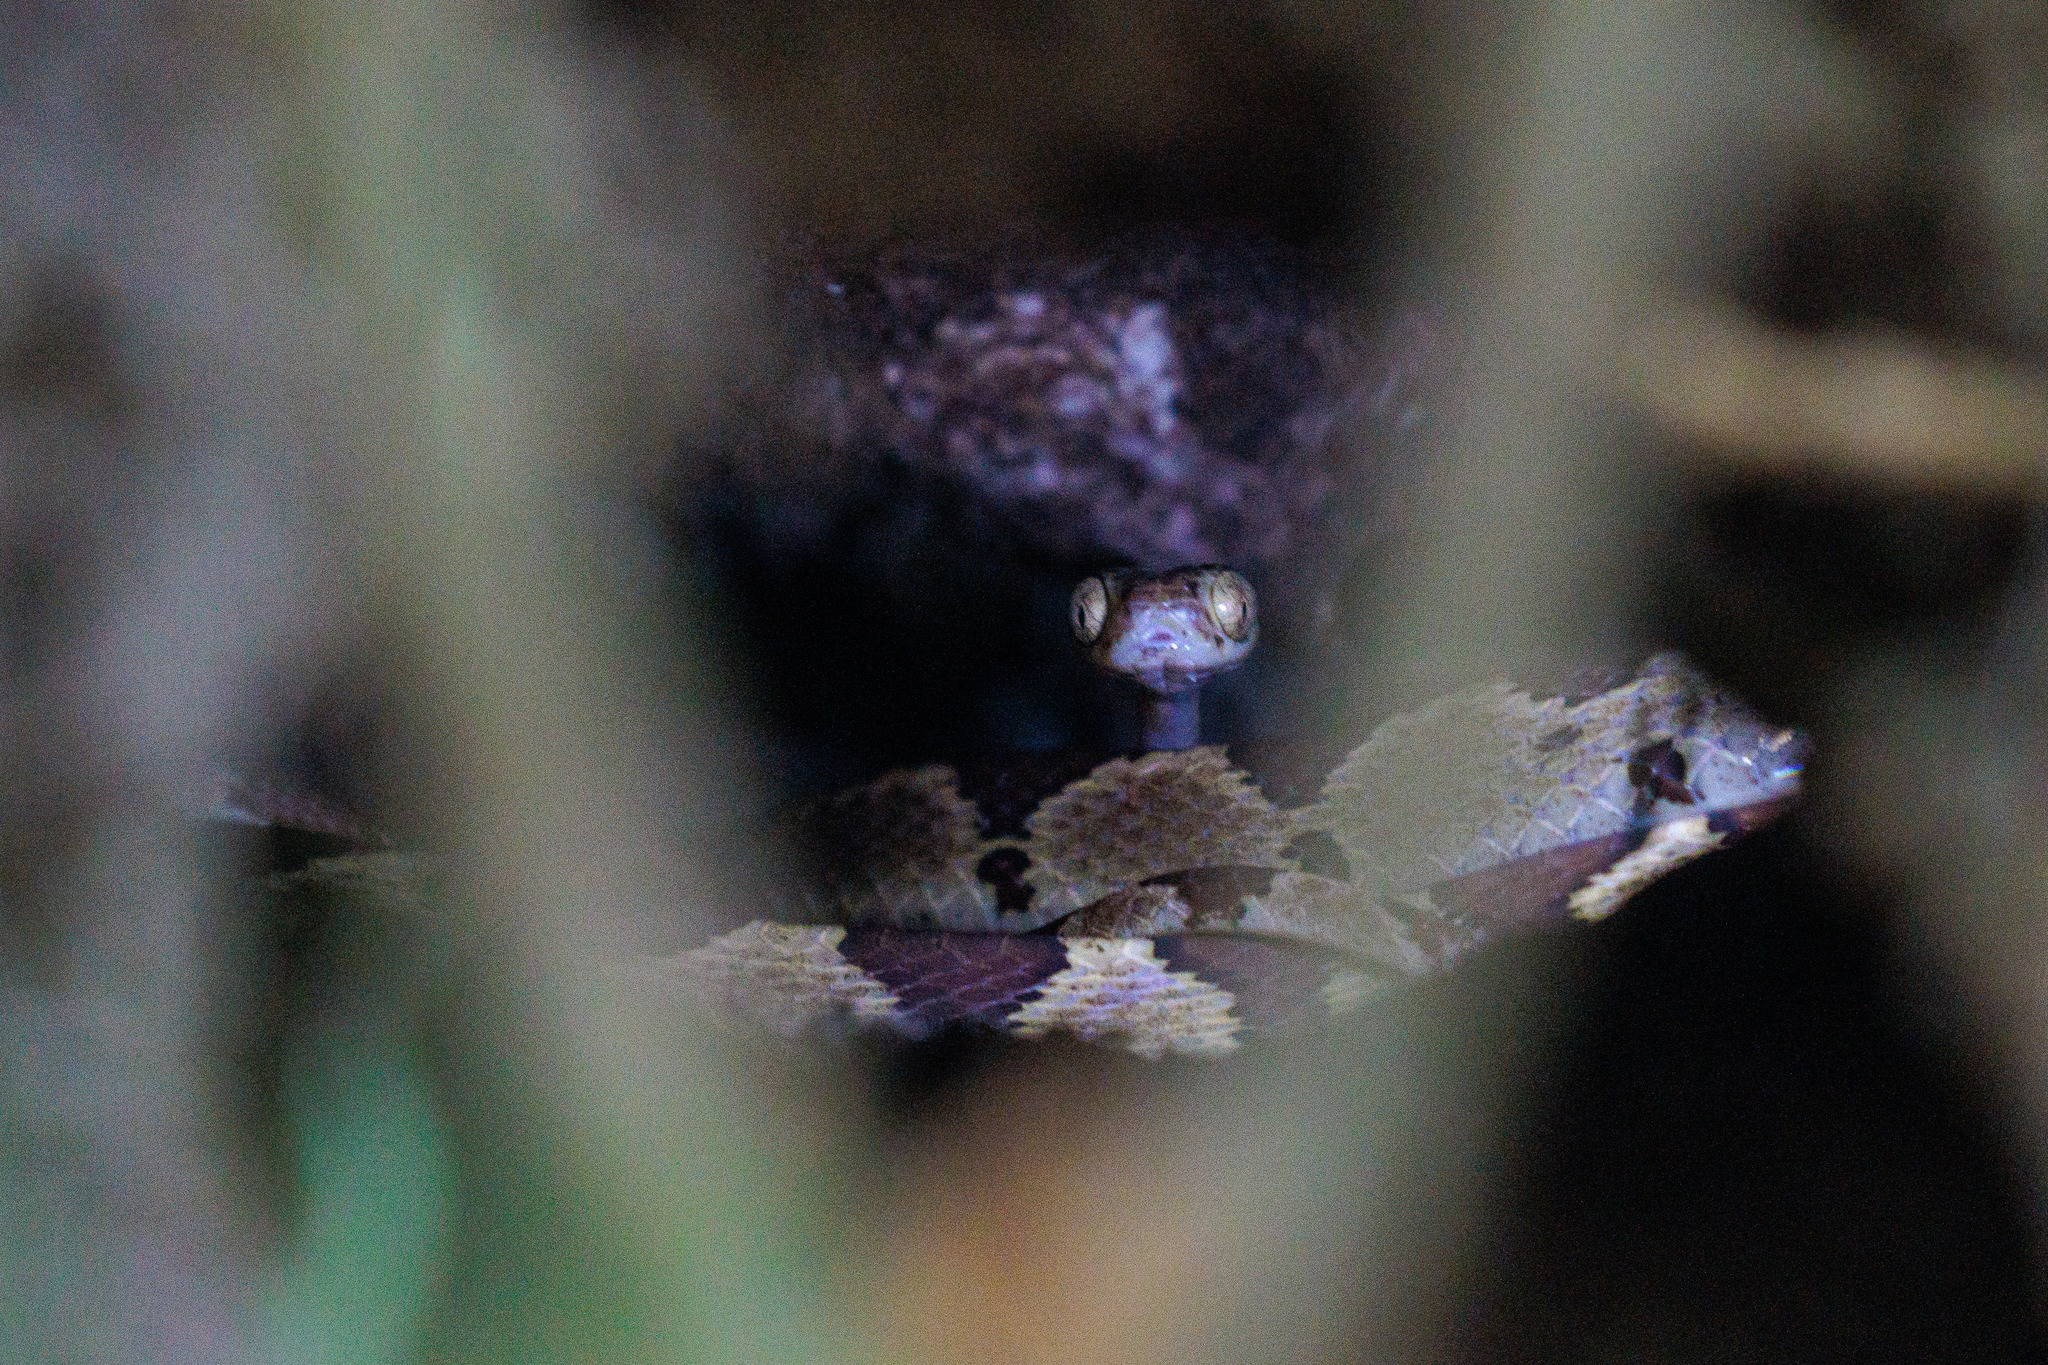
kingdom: Animalia
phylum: Chordata
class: Squamata
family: Colubridae
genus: Imantodes
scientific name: Imantodes cenchoa
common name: Blunthead tree snake
